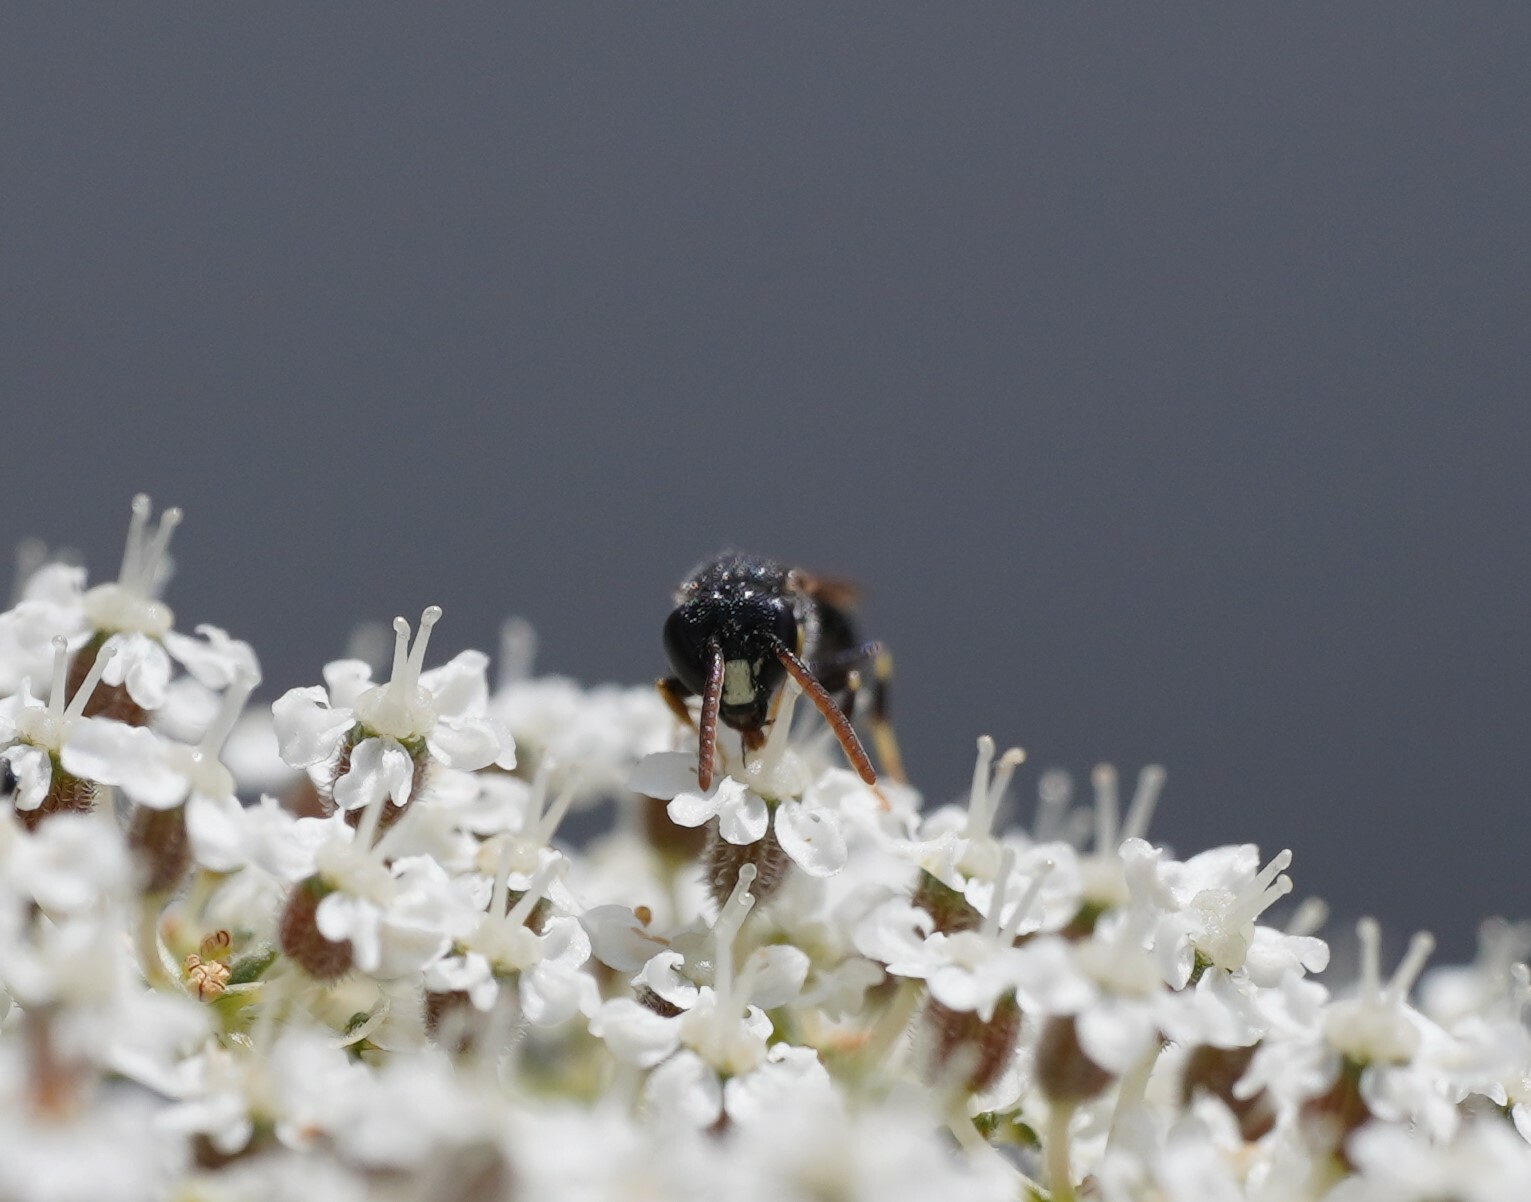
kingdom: Animalia
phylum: Arthropoda
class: Insecta
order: Hymenoptera
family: Colletidae
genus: Hylaeus
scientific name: Hylaeus punctatus
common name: Punctate masked bee
